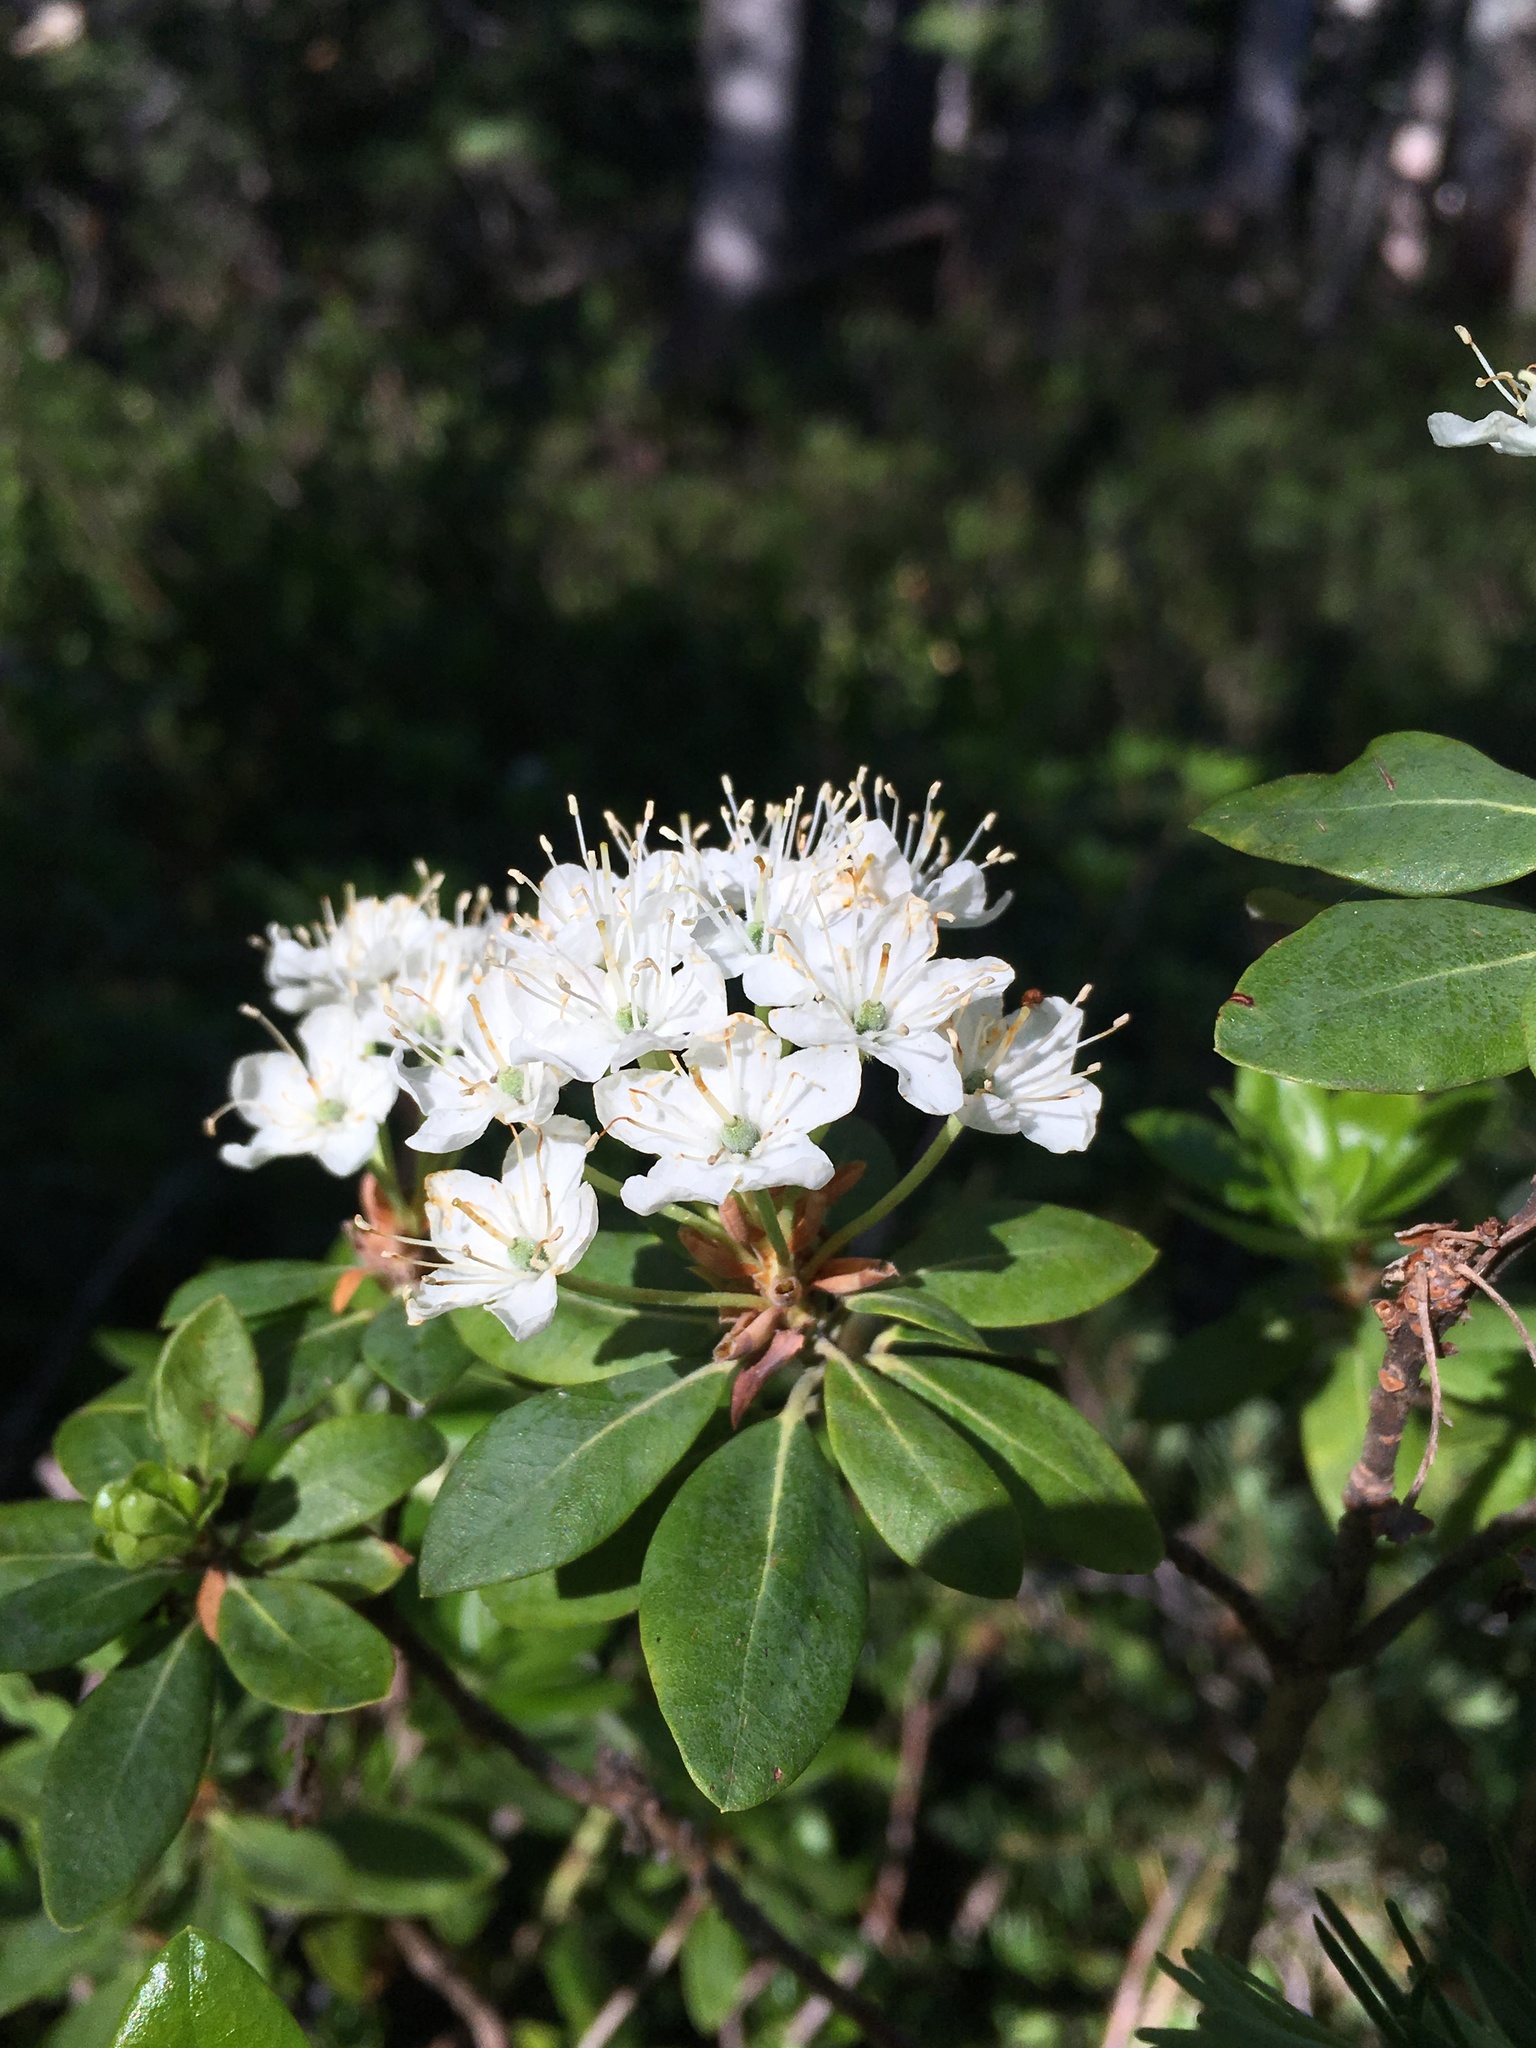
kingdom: Plantae
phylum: Tracheophyta
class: Magnoliopsida
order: Ericales
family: Ericaceae
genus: Rhododendron
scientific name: Rhododendron columbianum
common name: Western labrador tea
